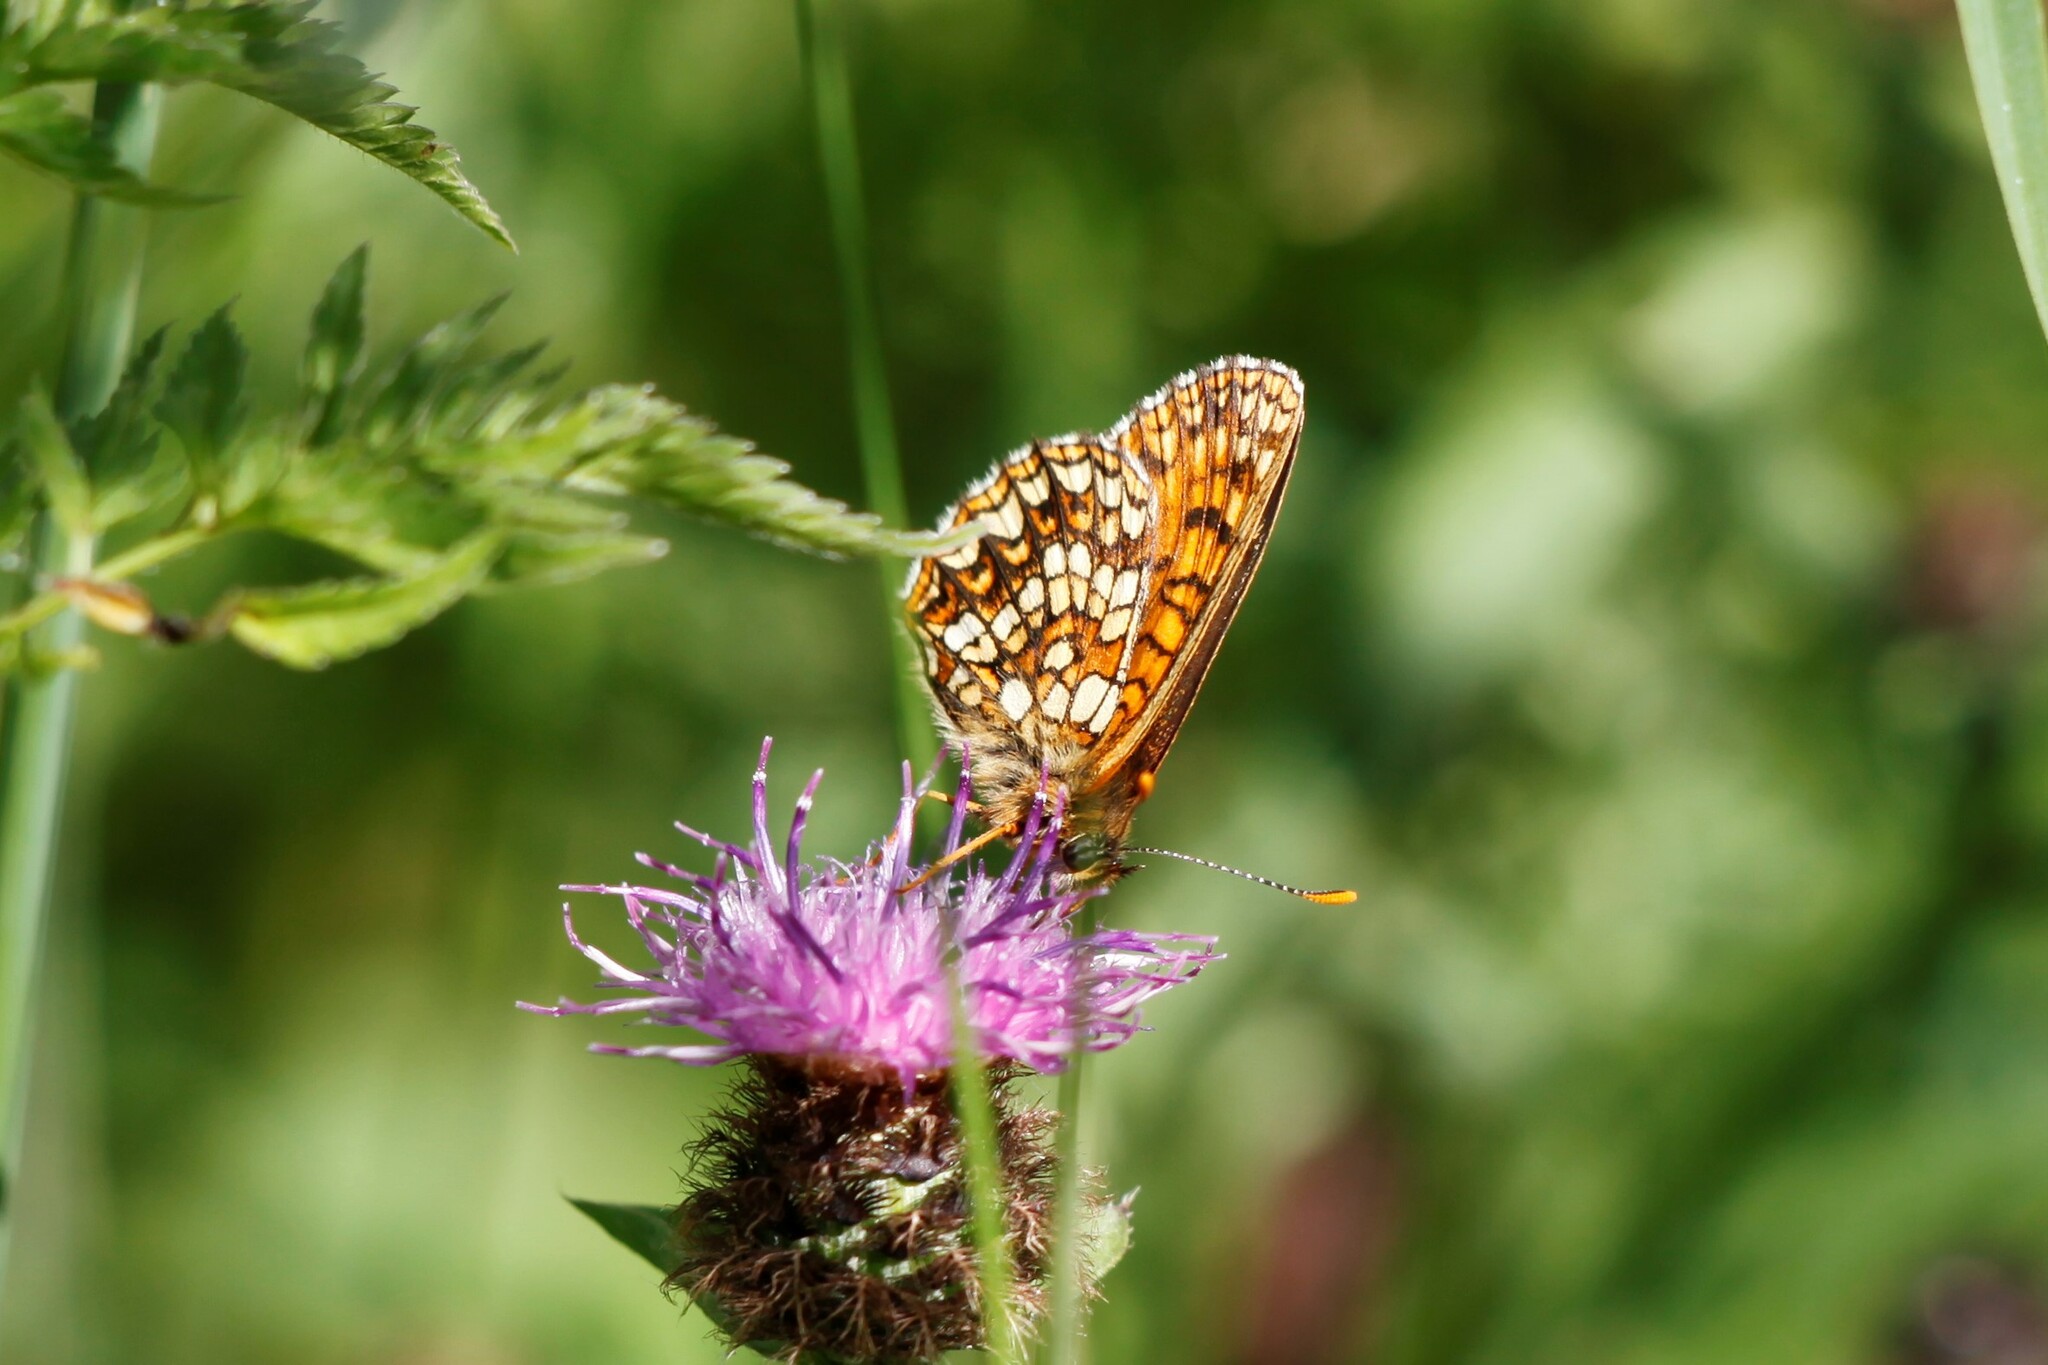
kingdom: Animalia
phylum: Arthropoda
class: Insecta
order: Lepidoptera
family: Nymphalidae
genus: Melitaea
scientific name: Melitaea diamina
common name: False heath fritillary
